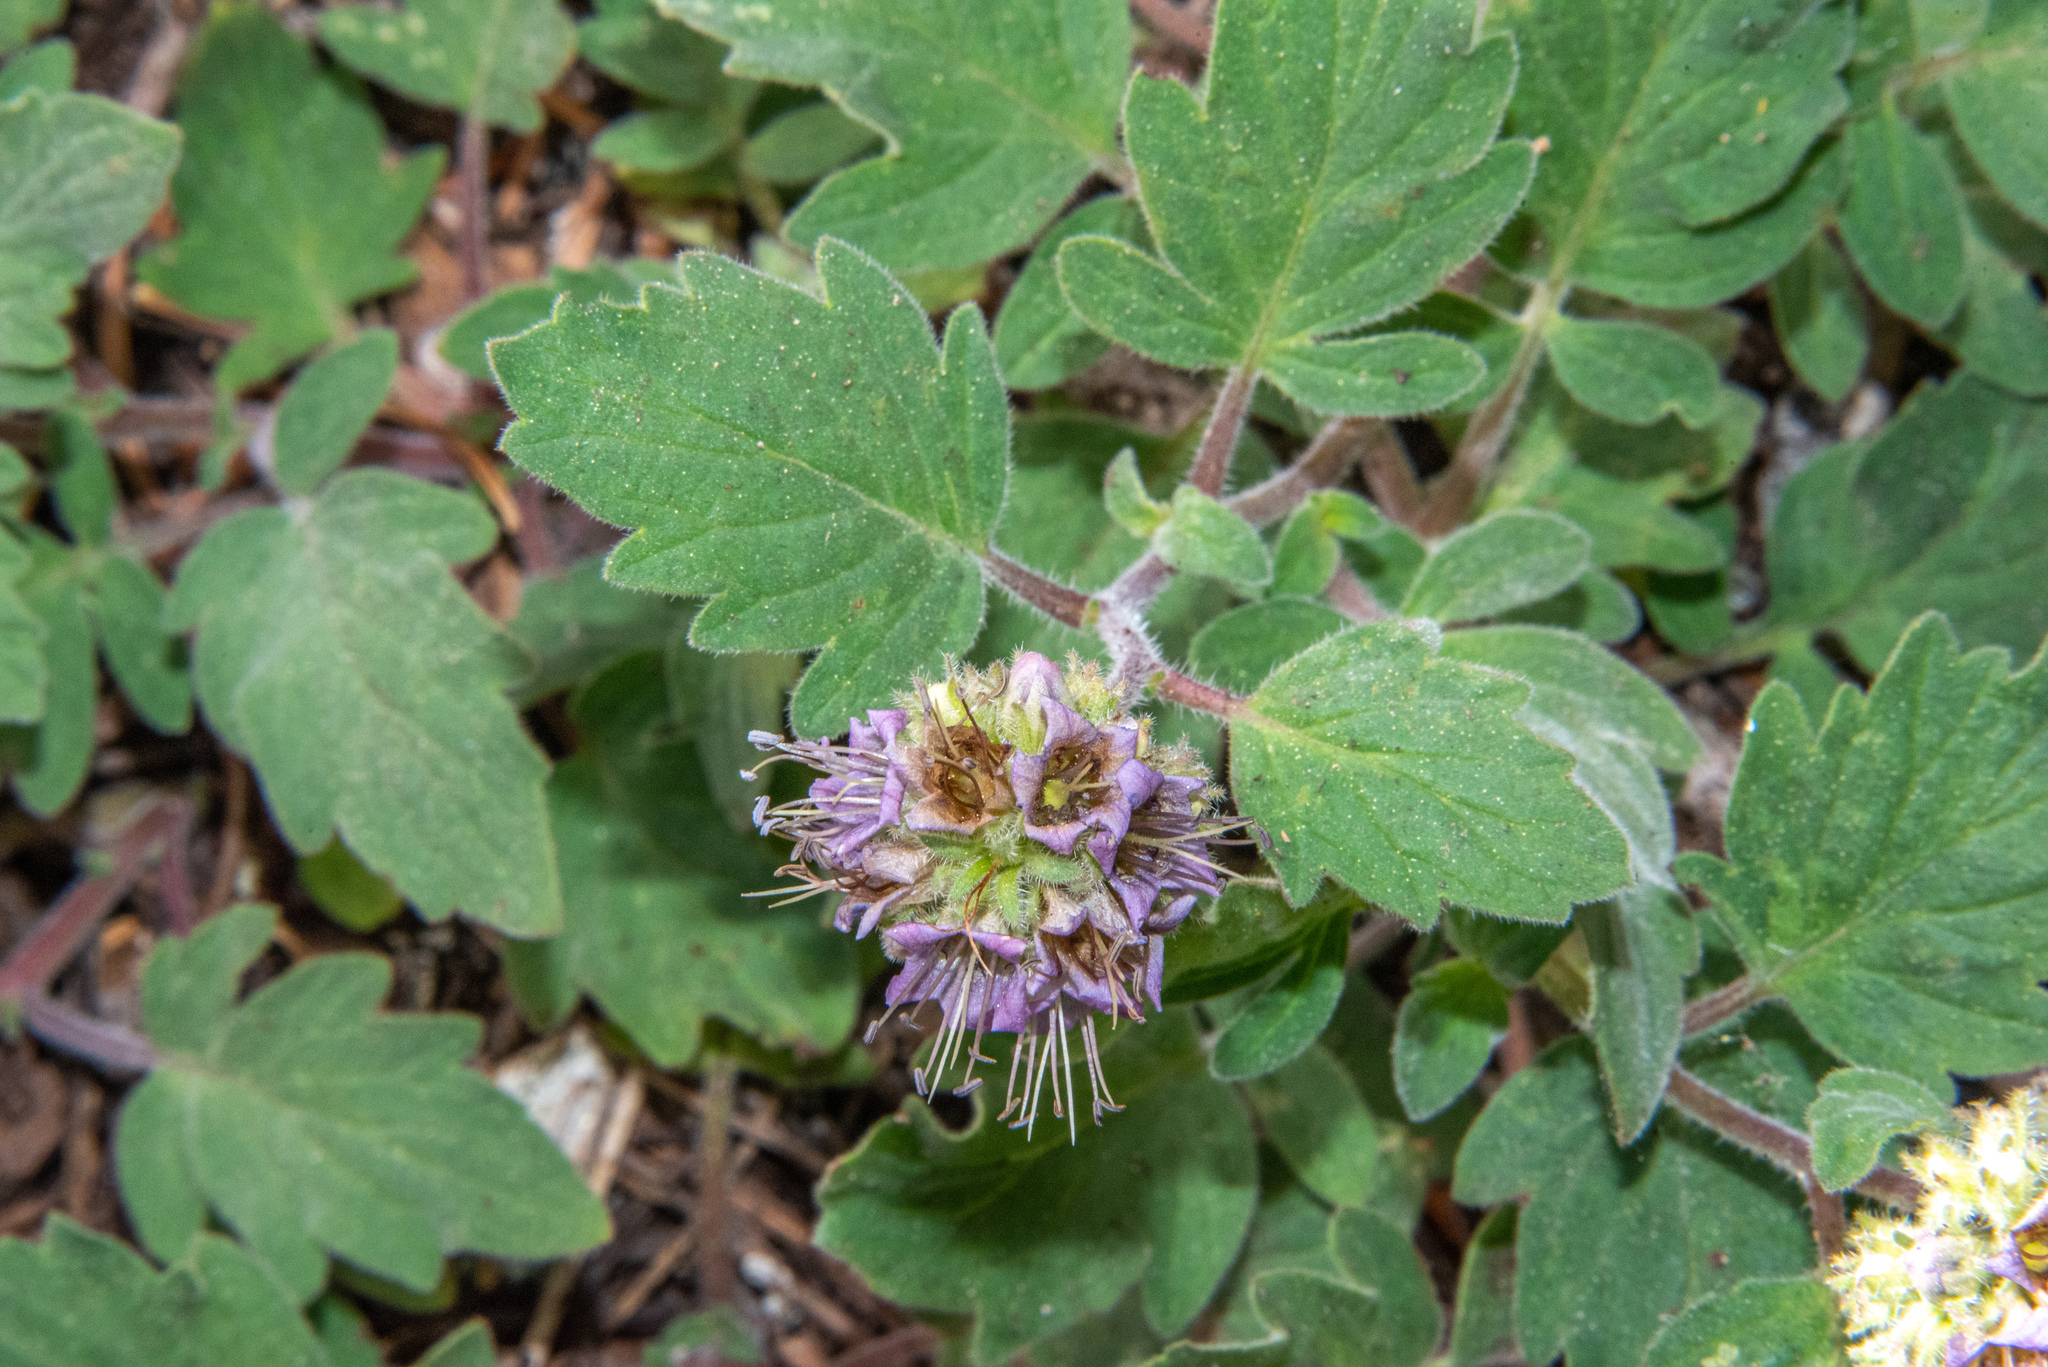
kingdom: Plantae
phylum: Tracheophyta
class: Magnoliopsida
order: Boraginales
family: Hydrophyllaceae
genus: Phacelia
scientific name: Phacelia hydrophylloides
